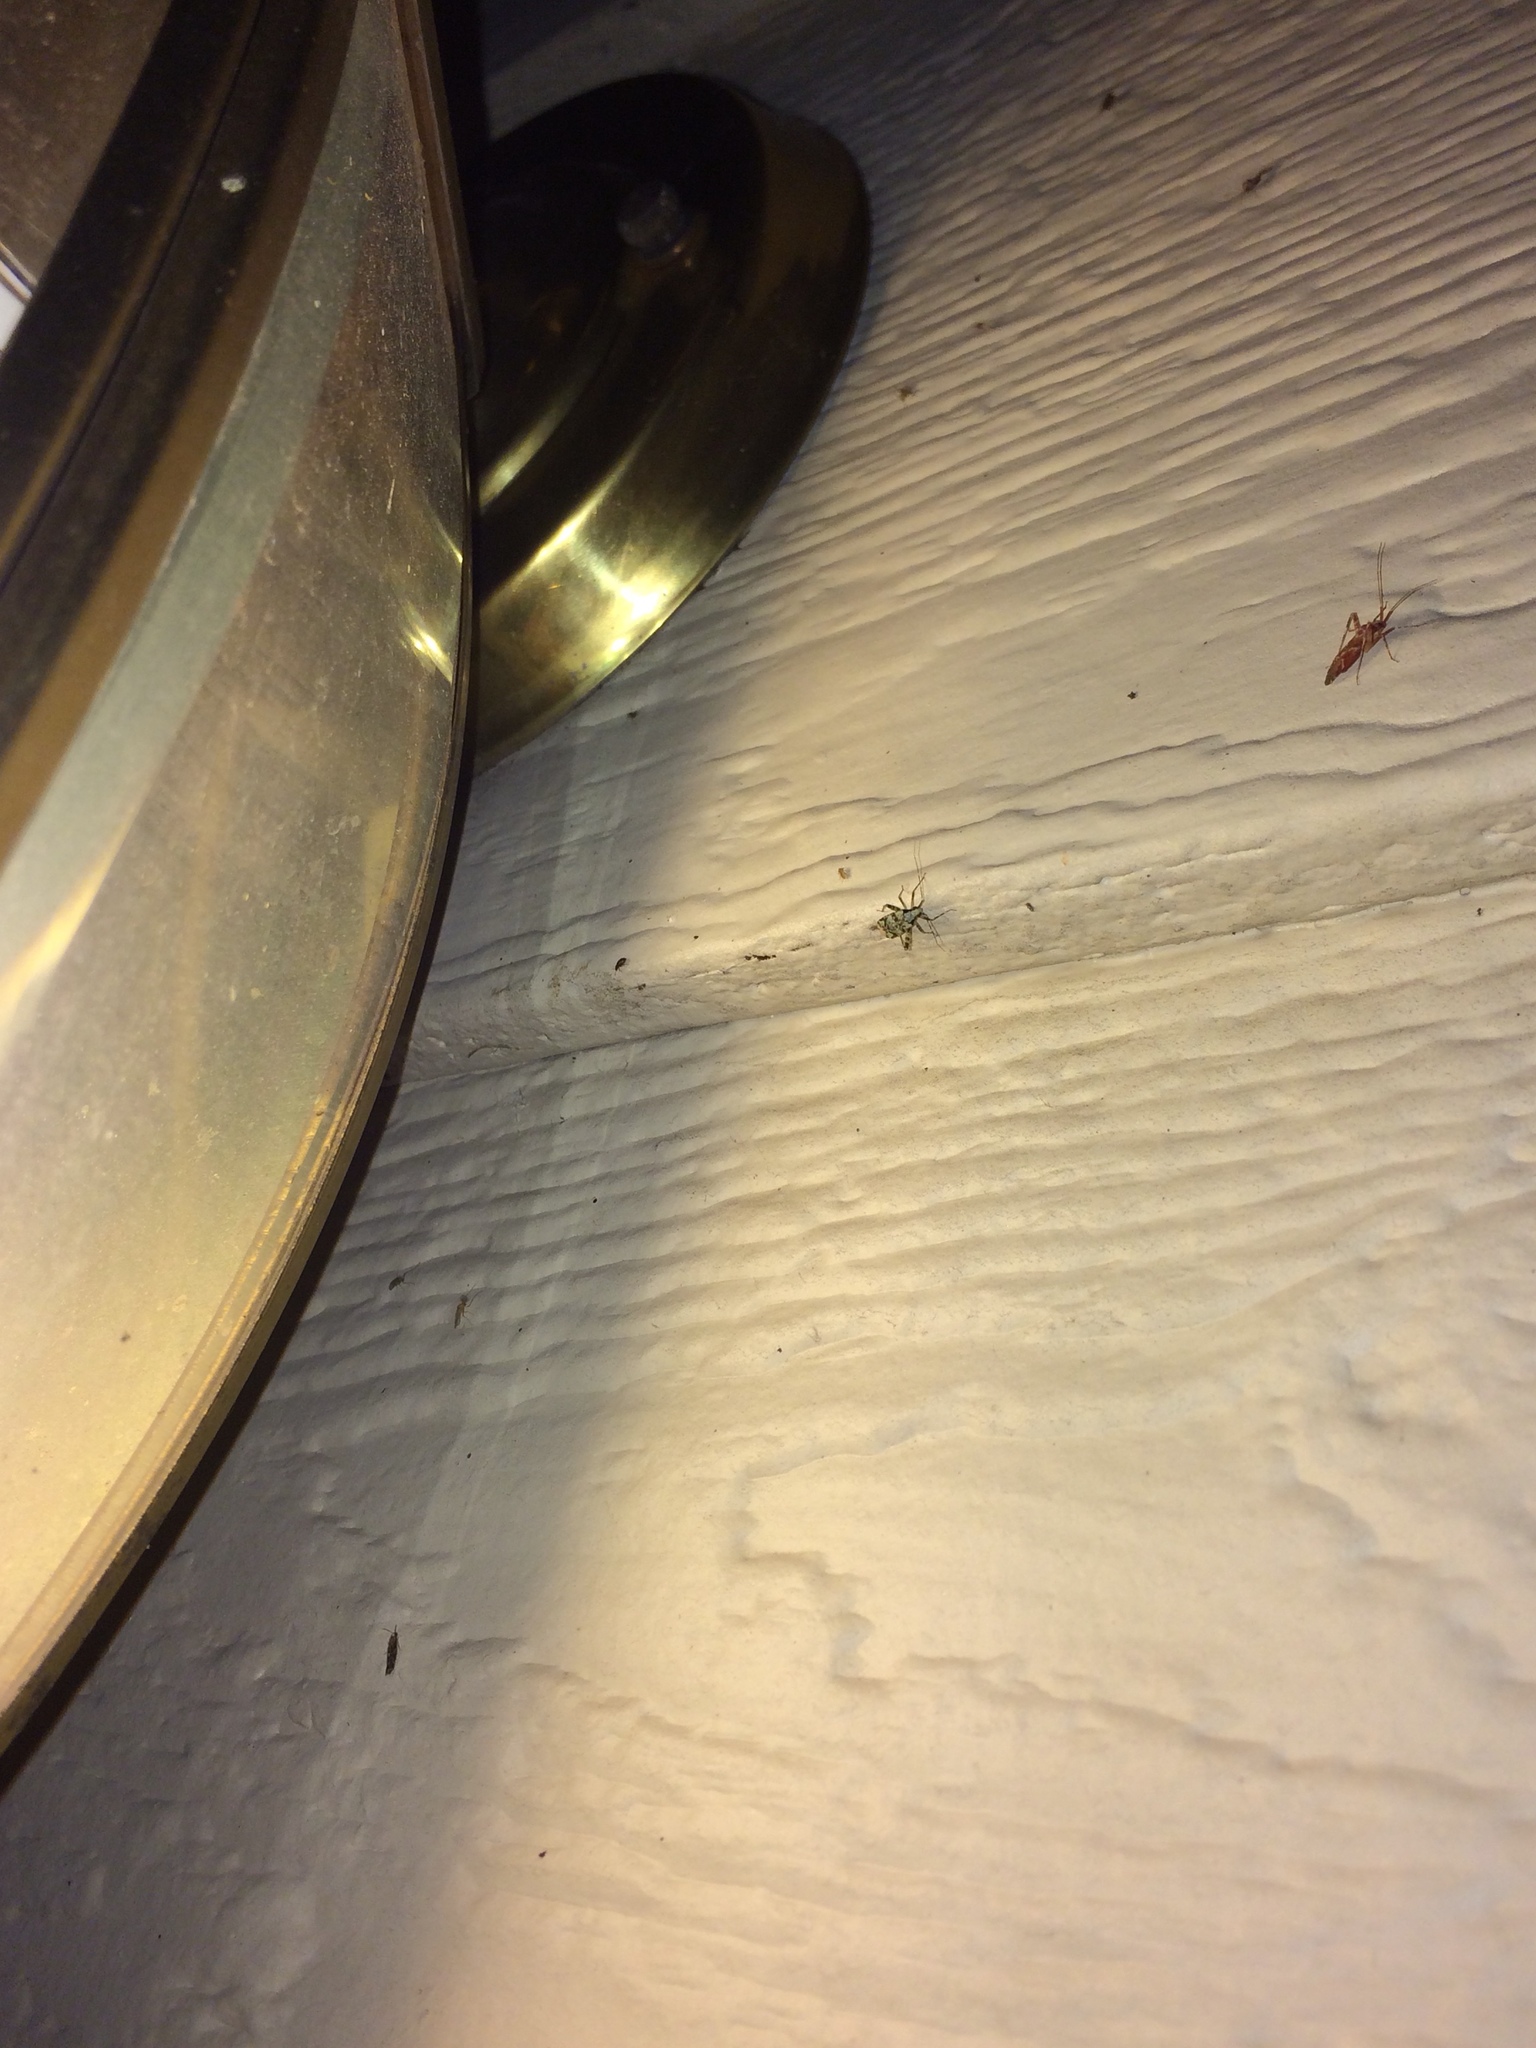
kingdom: Animalia
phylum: Arthropoda
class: Insecta
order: Hemiptera
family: Miridae
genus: Phytocoris
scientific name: Phytocoris tiliae
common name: Plant bug
